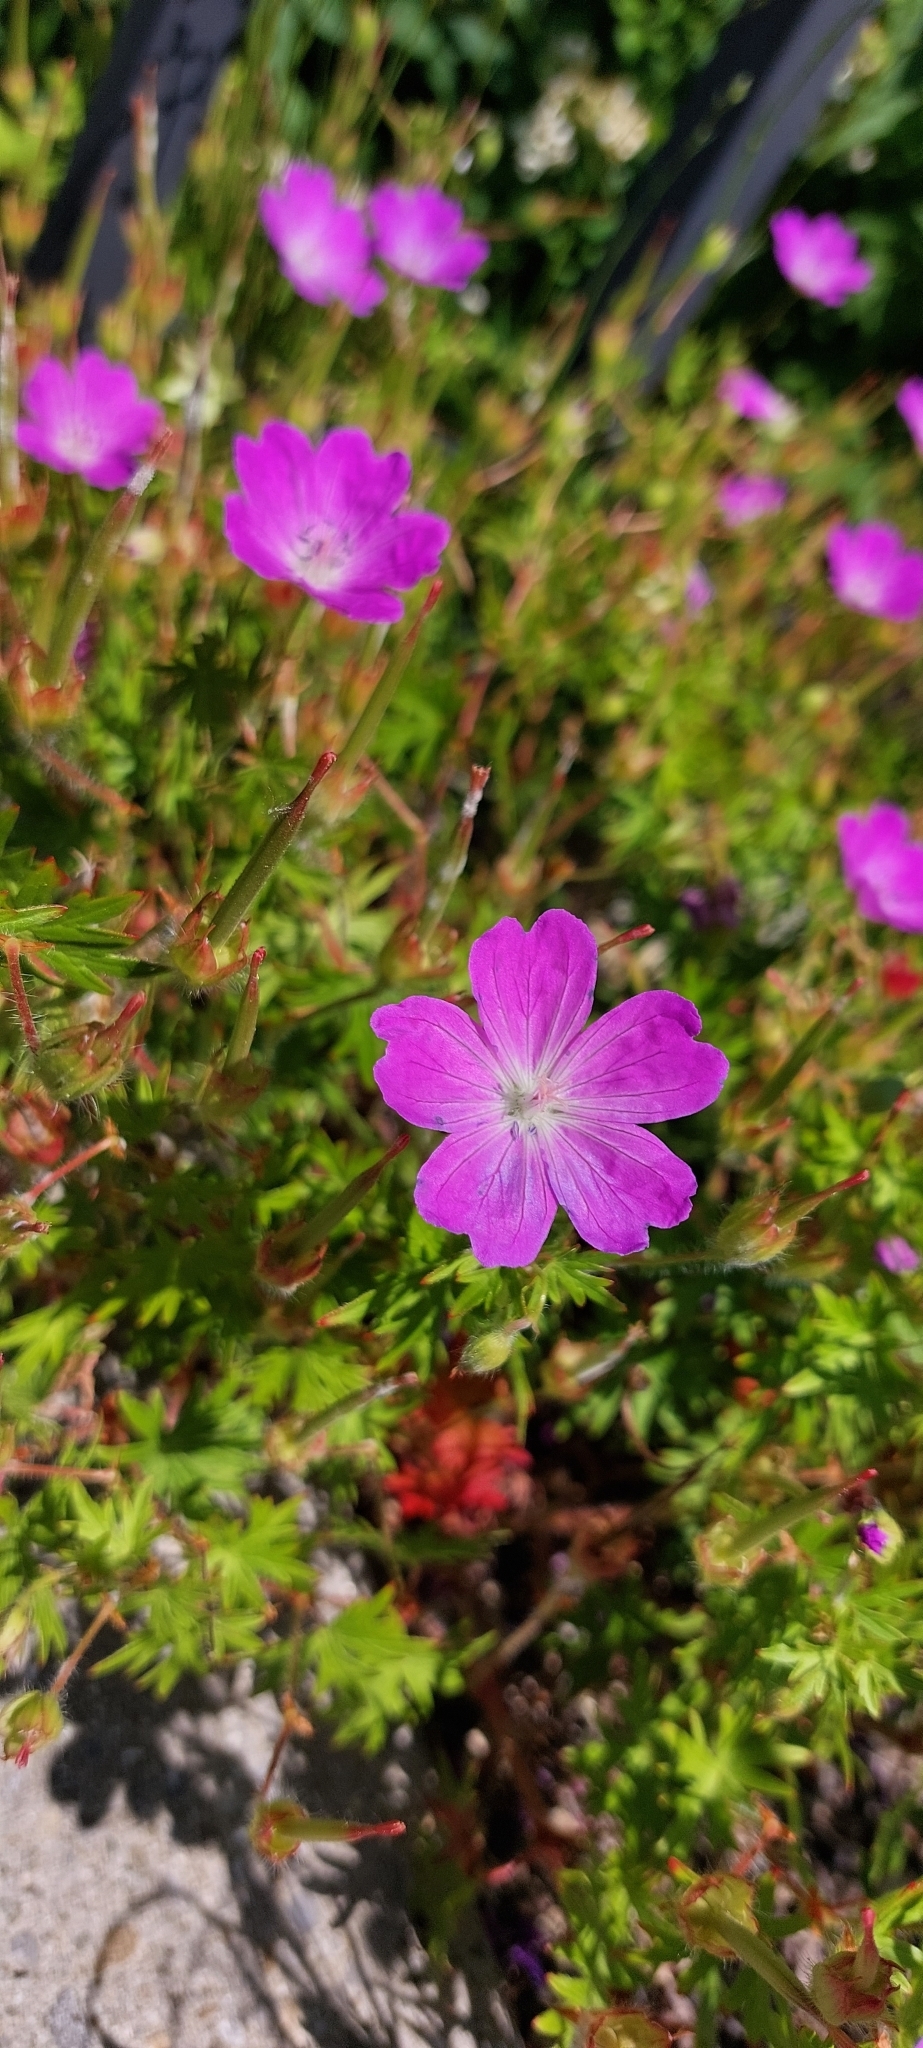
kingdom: Plantae
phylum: Tracheophyta
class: Magnoliopsida
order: Geraniales
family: Geraniaceae
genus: Geranium
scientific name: Geranium sanguineum
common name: Bloody crane's-bill
